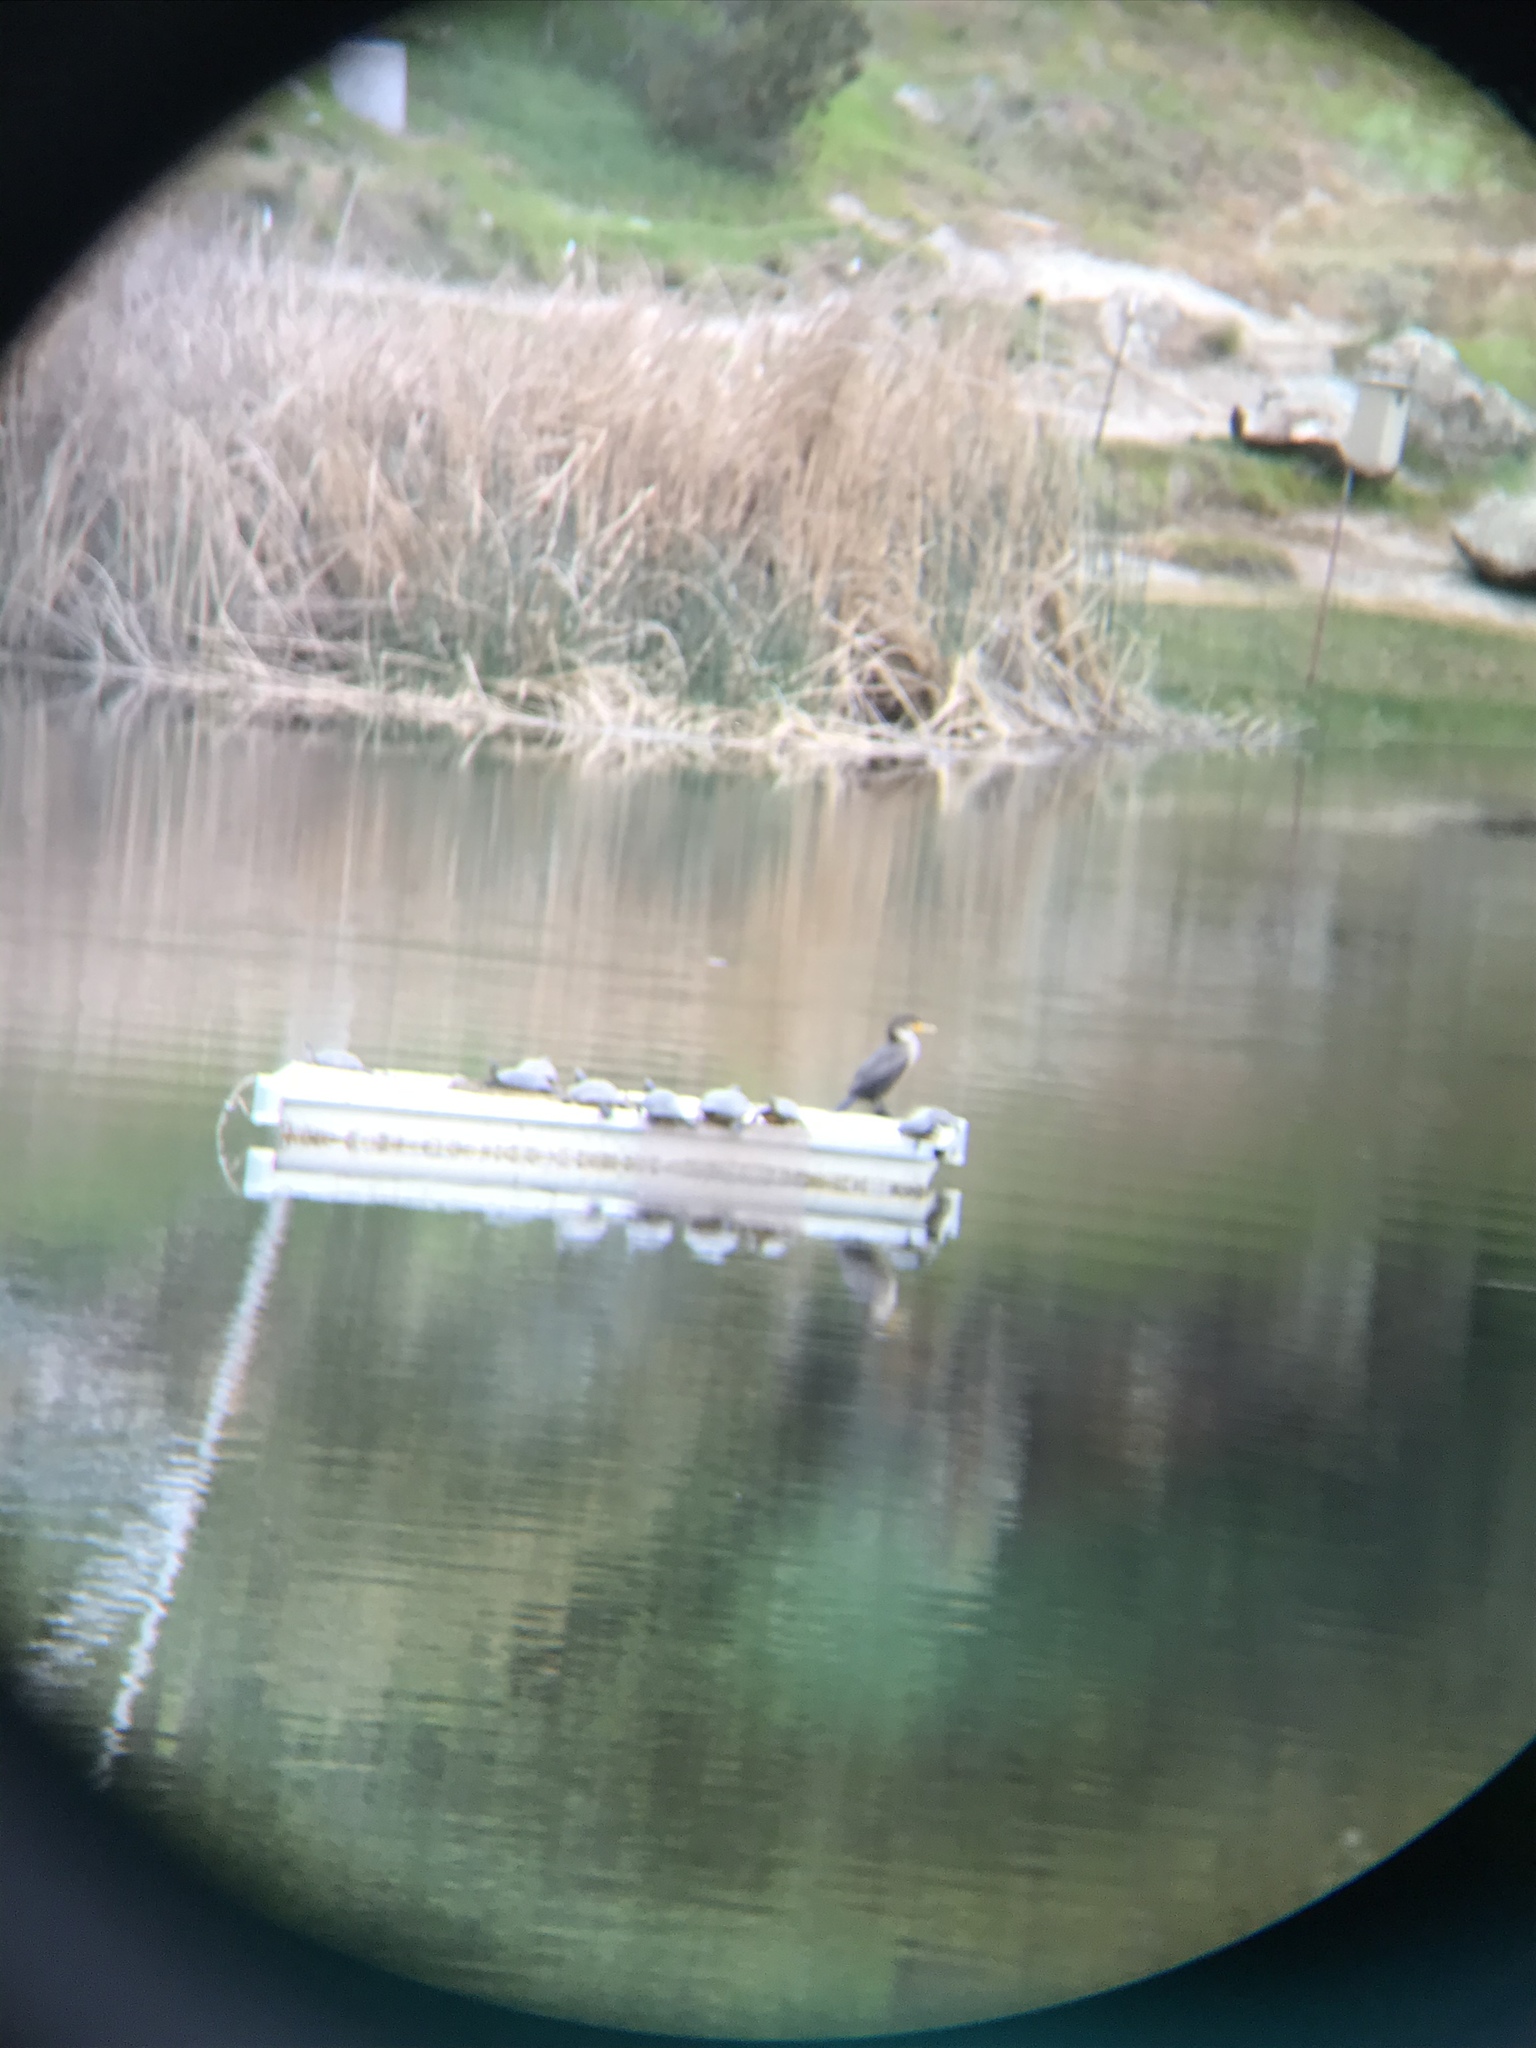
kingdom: Animalia
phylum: Chordata
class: Aves
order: Suliformes
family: Phalacrocoracidae
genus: Phalacrocorax
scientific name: Phalacrocorax auritus
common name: Double-crested cormorant
